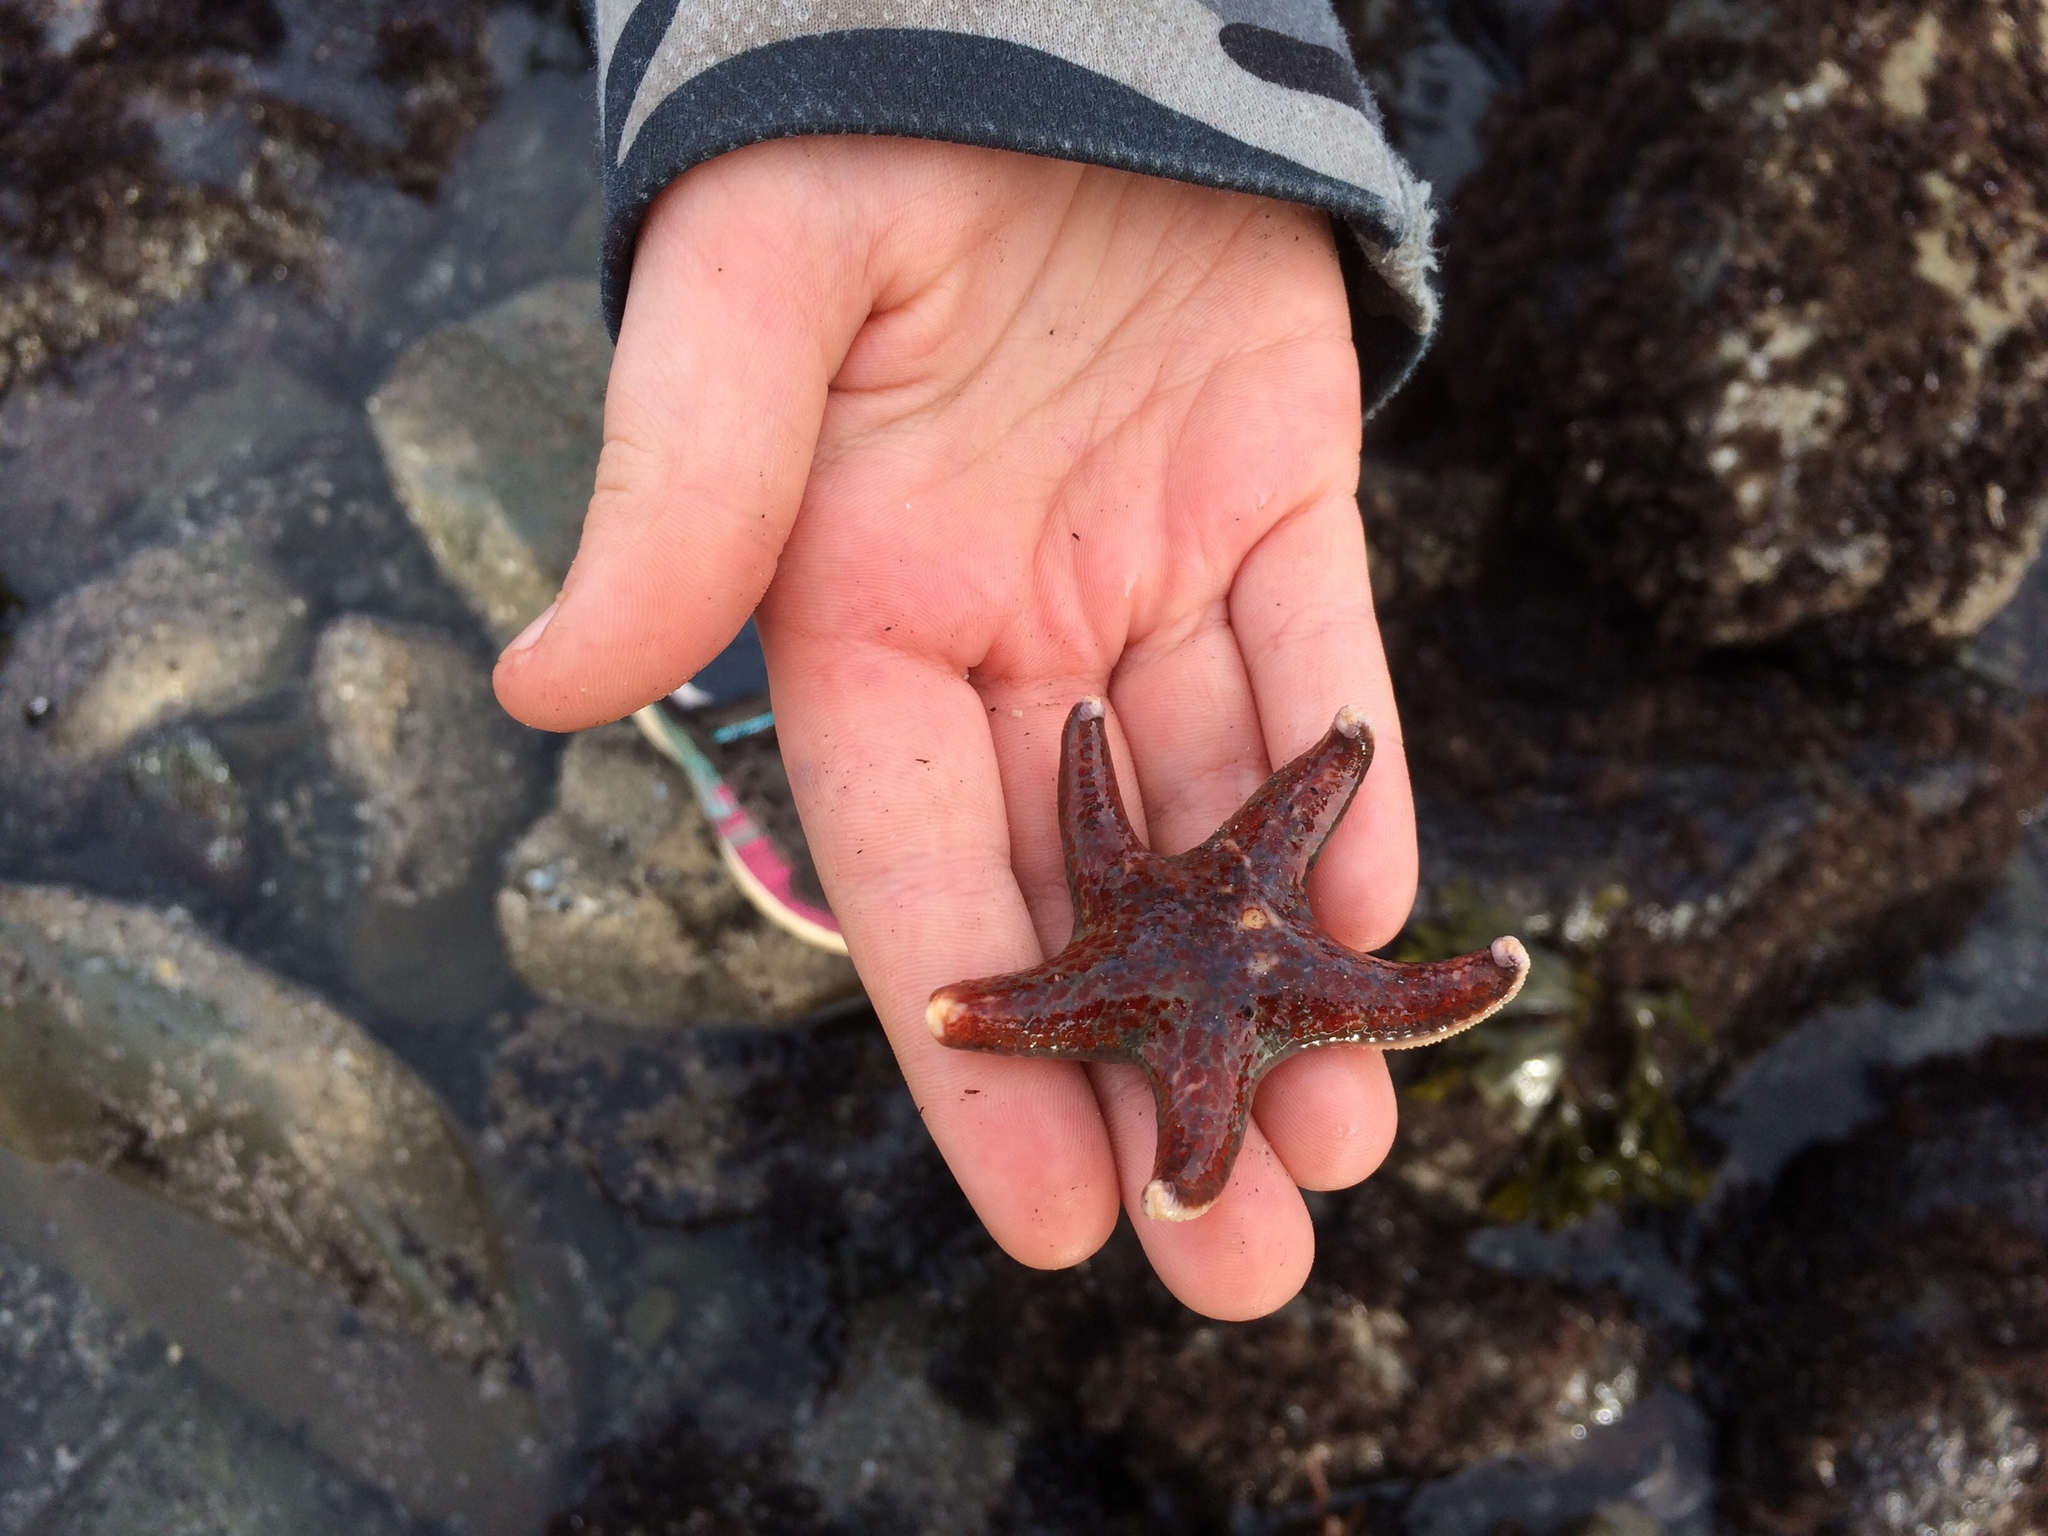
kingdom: Animalia
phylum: Echinodermata
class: Asteroidea
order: Valvatida
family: Asteropseidae
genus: Dermasterias
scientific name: Dermasterias imbricata
